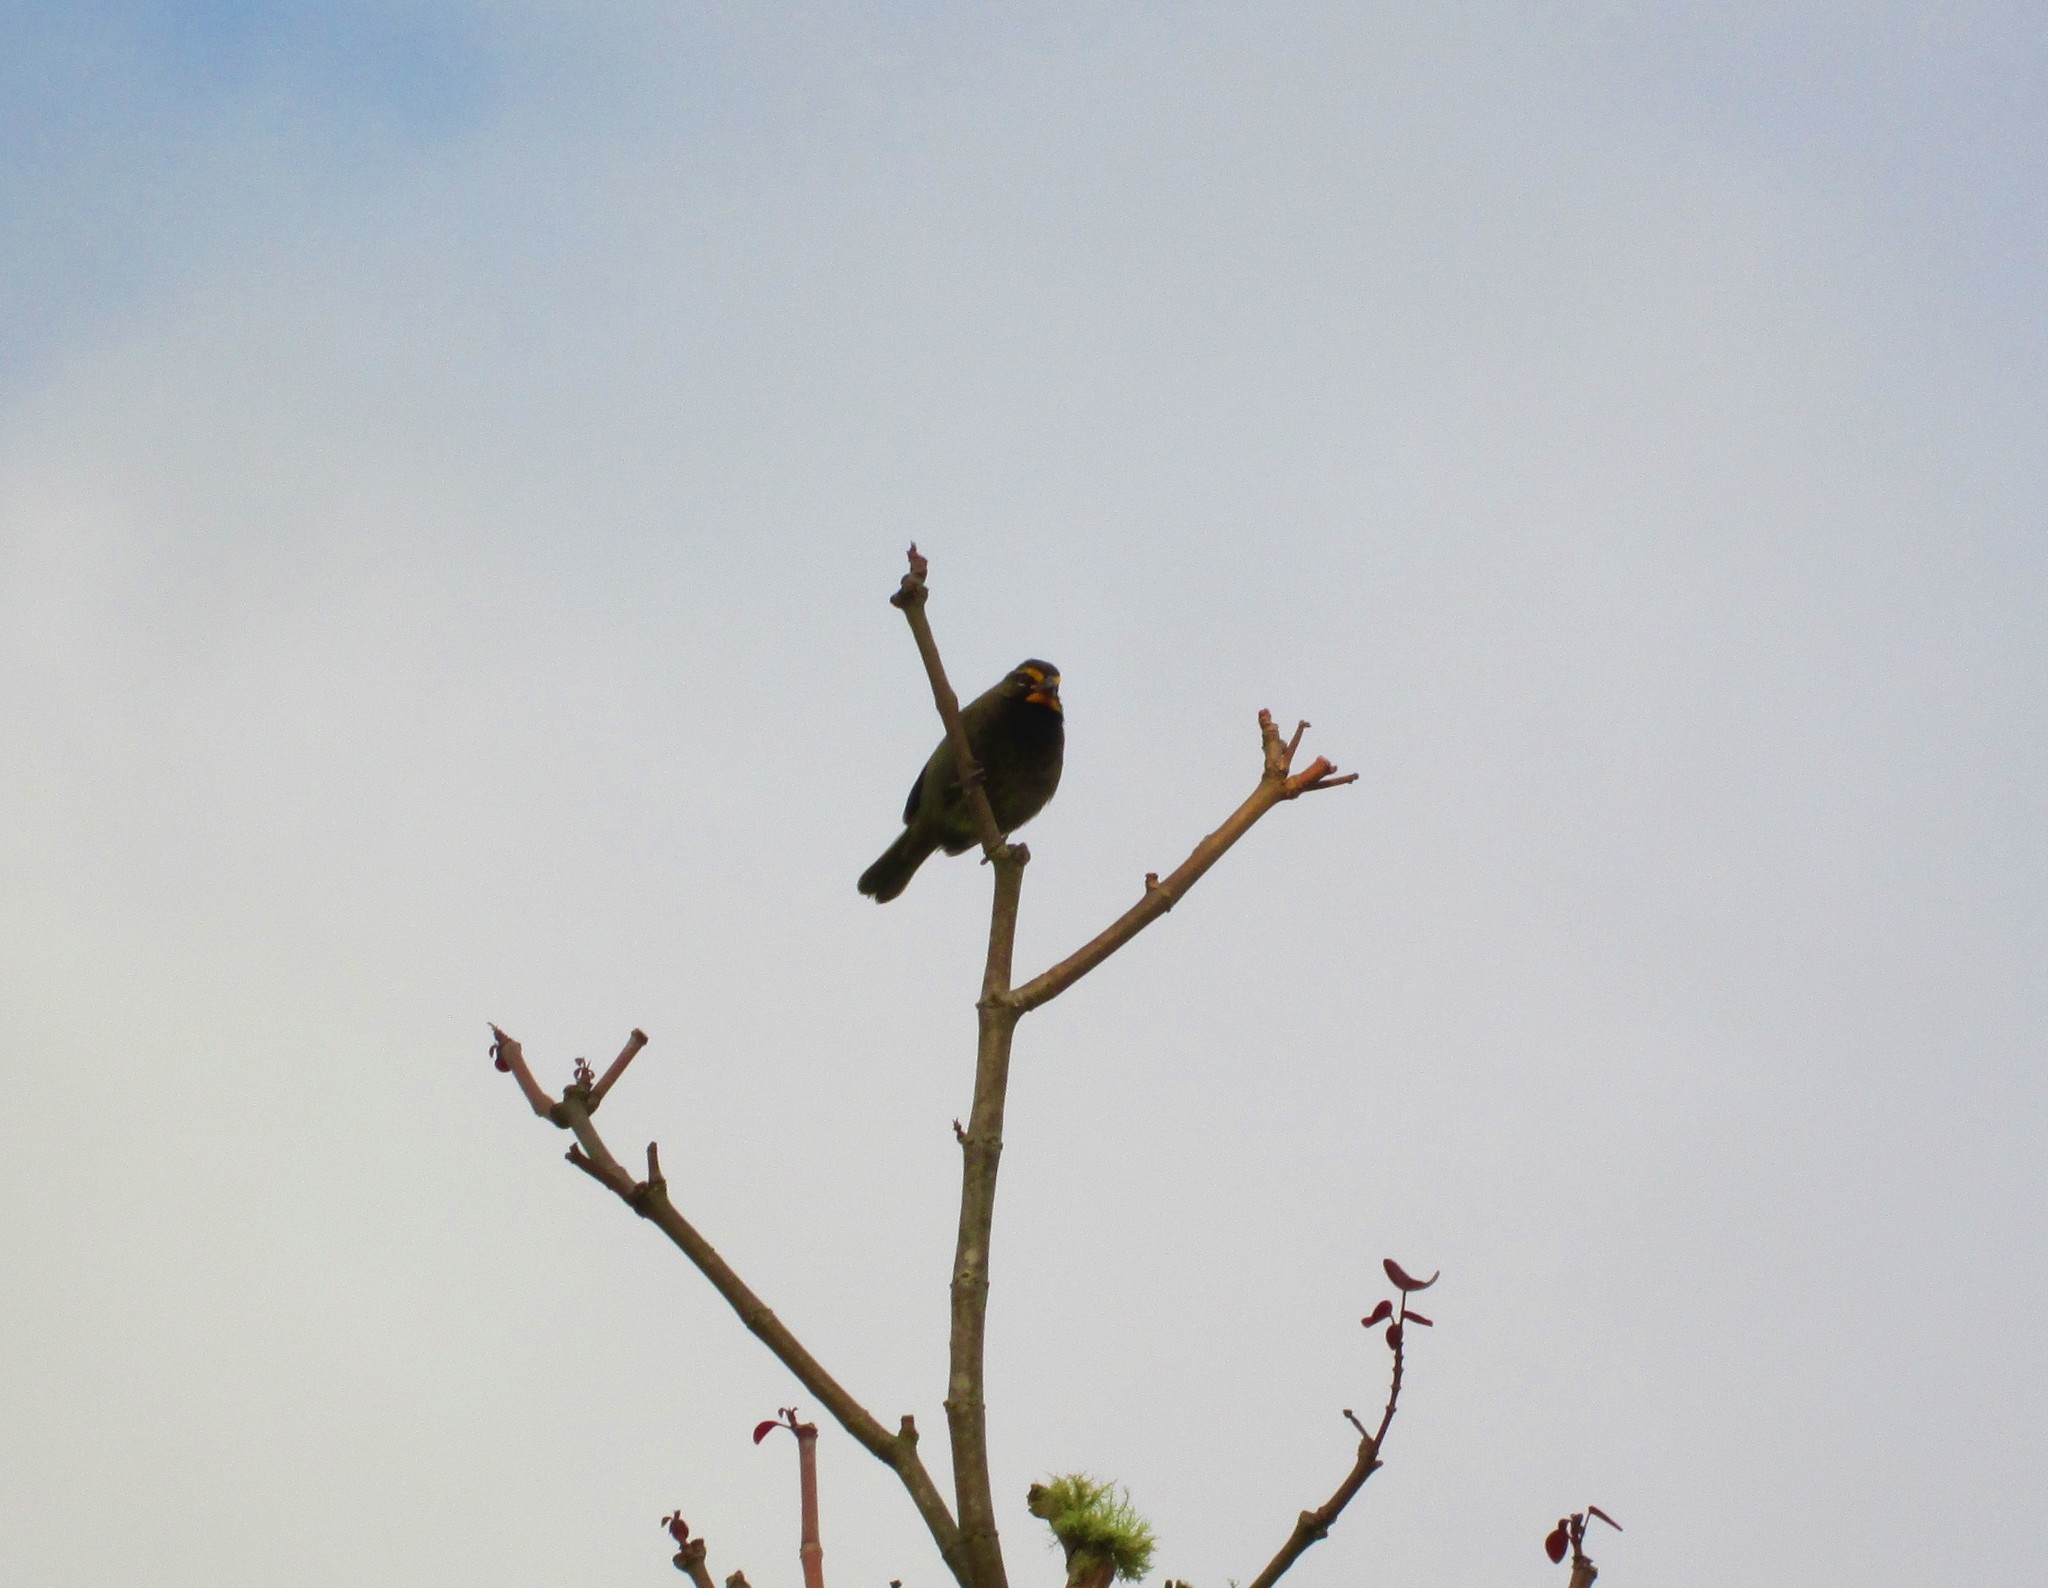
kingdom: Animalia
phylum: Chordata
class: Aves
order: Passeriformes
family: Thraupidae
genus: Tiaris
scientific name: Tiaris olivaceus
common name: Yellow-faced grassquit
